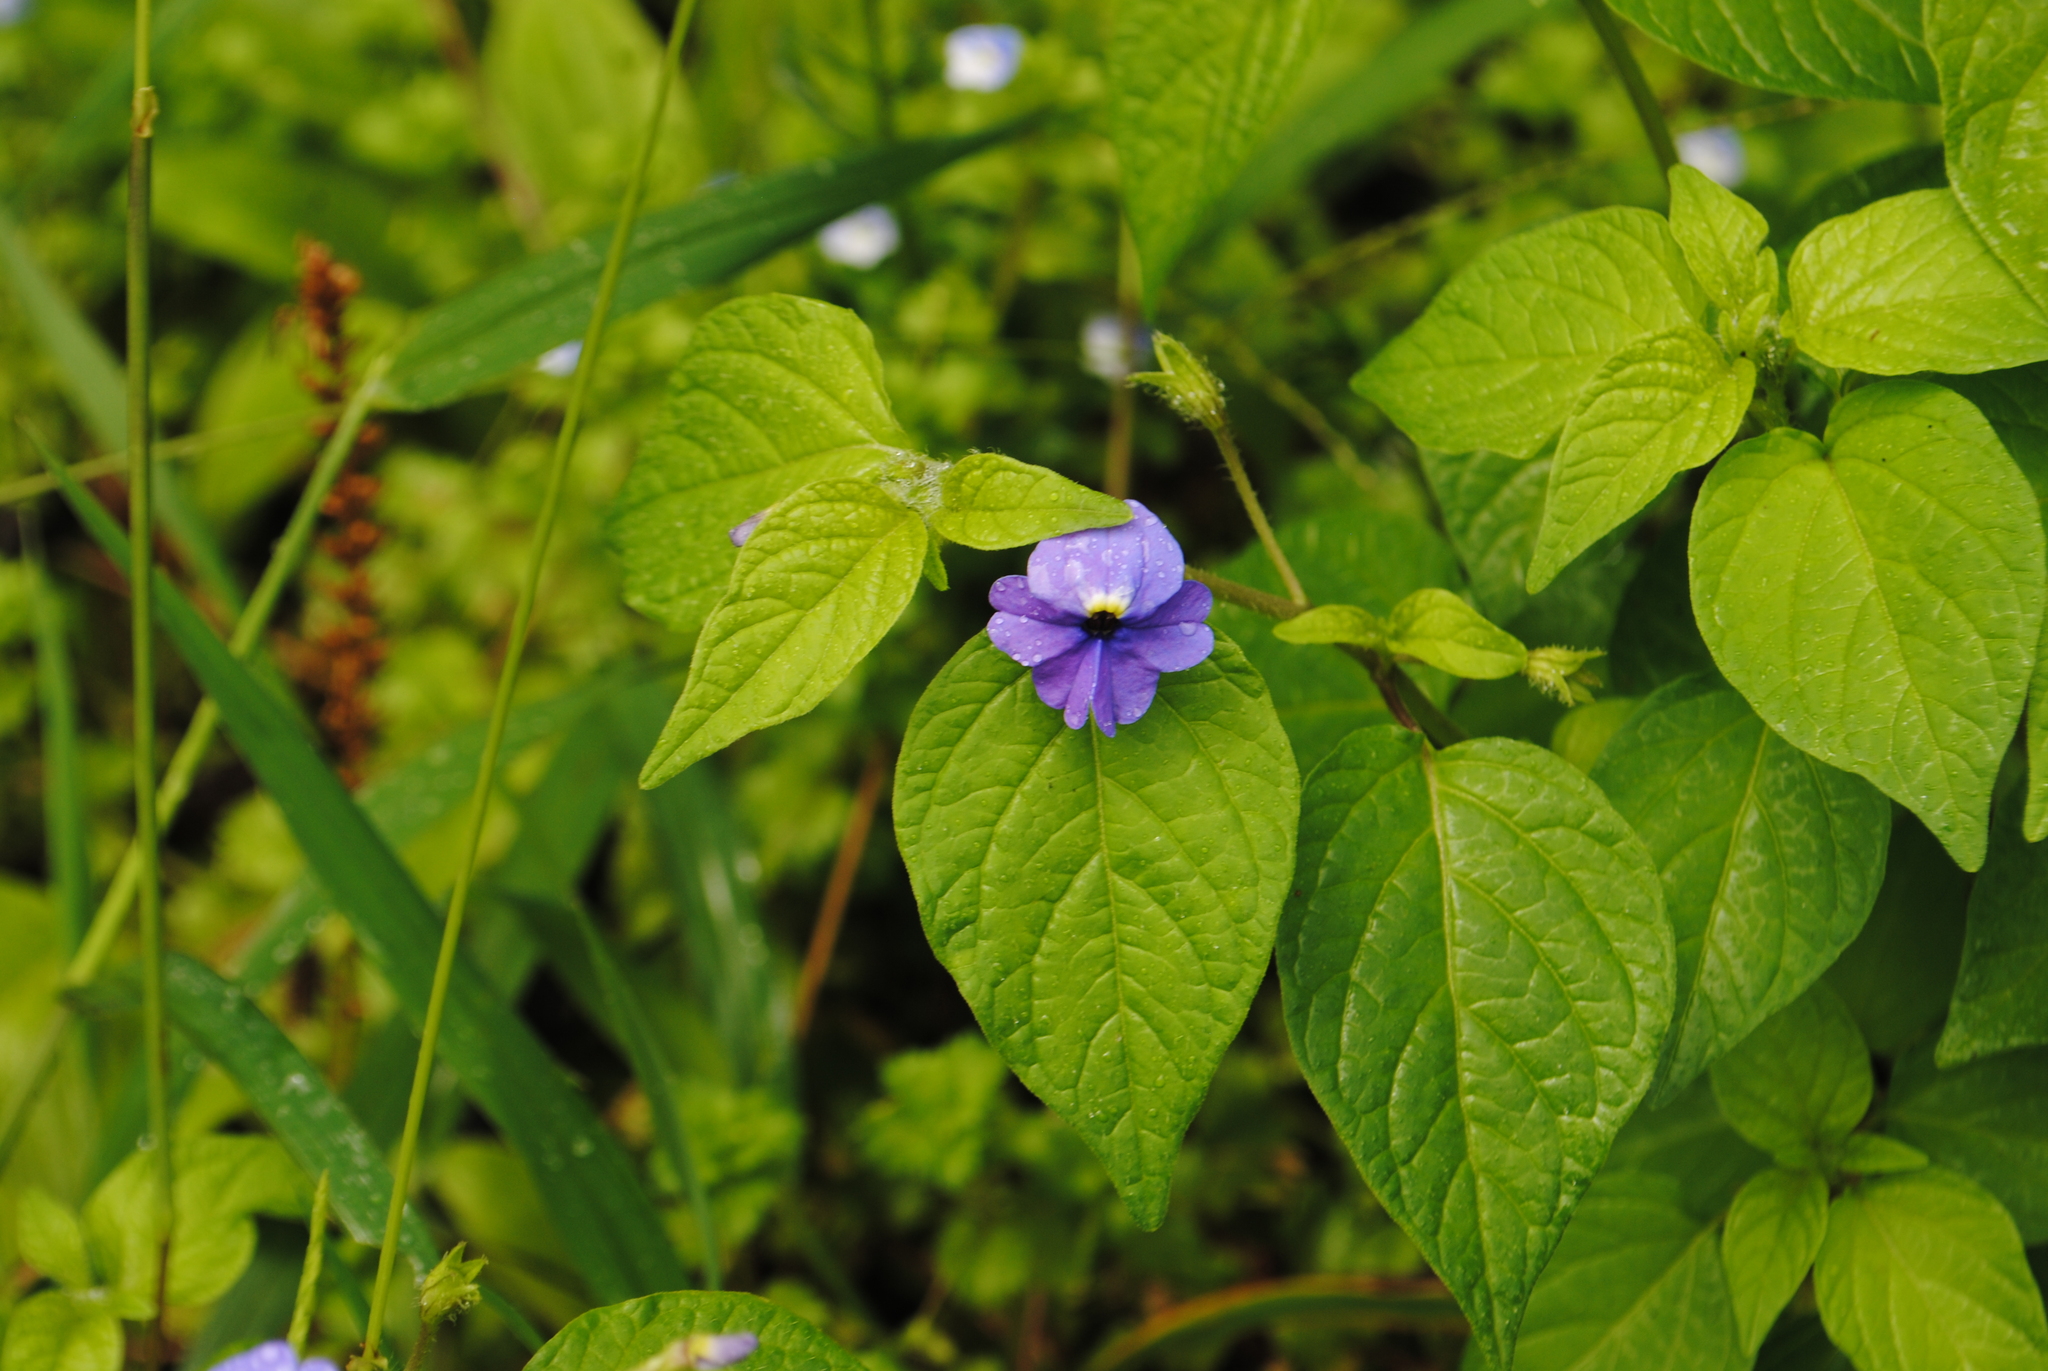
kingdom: Plantae
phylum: Tracheophyta
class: Magnoliopsida
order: Solanales
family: Solanaceae
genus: Browallia
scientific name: Browallia americana
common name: Jamaican forget-me-not
